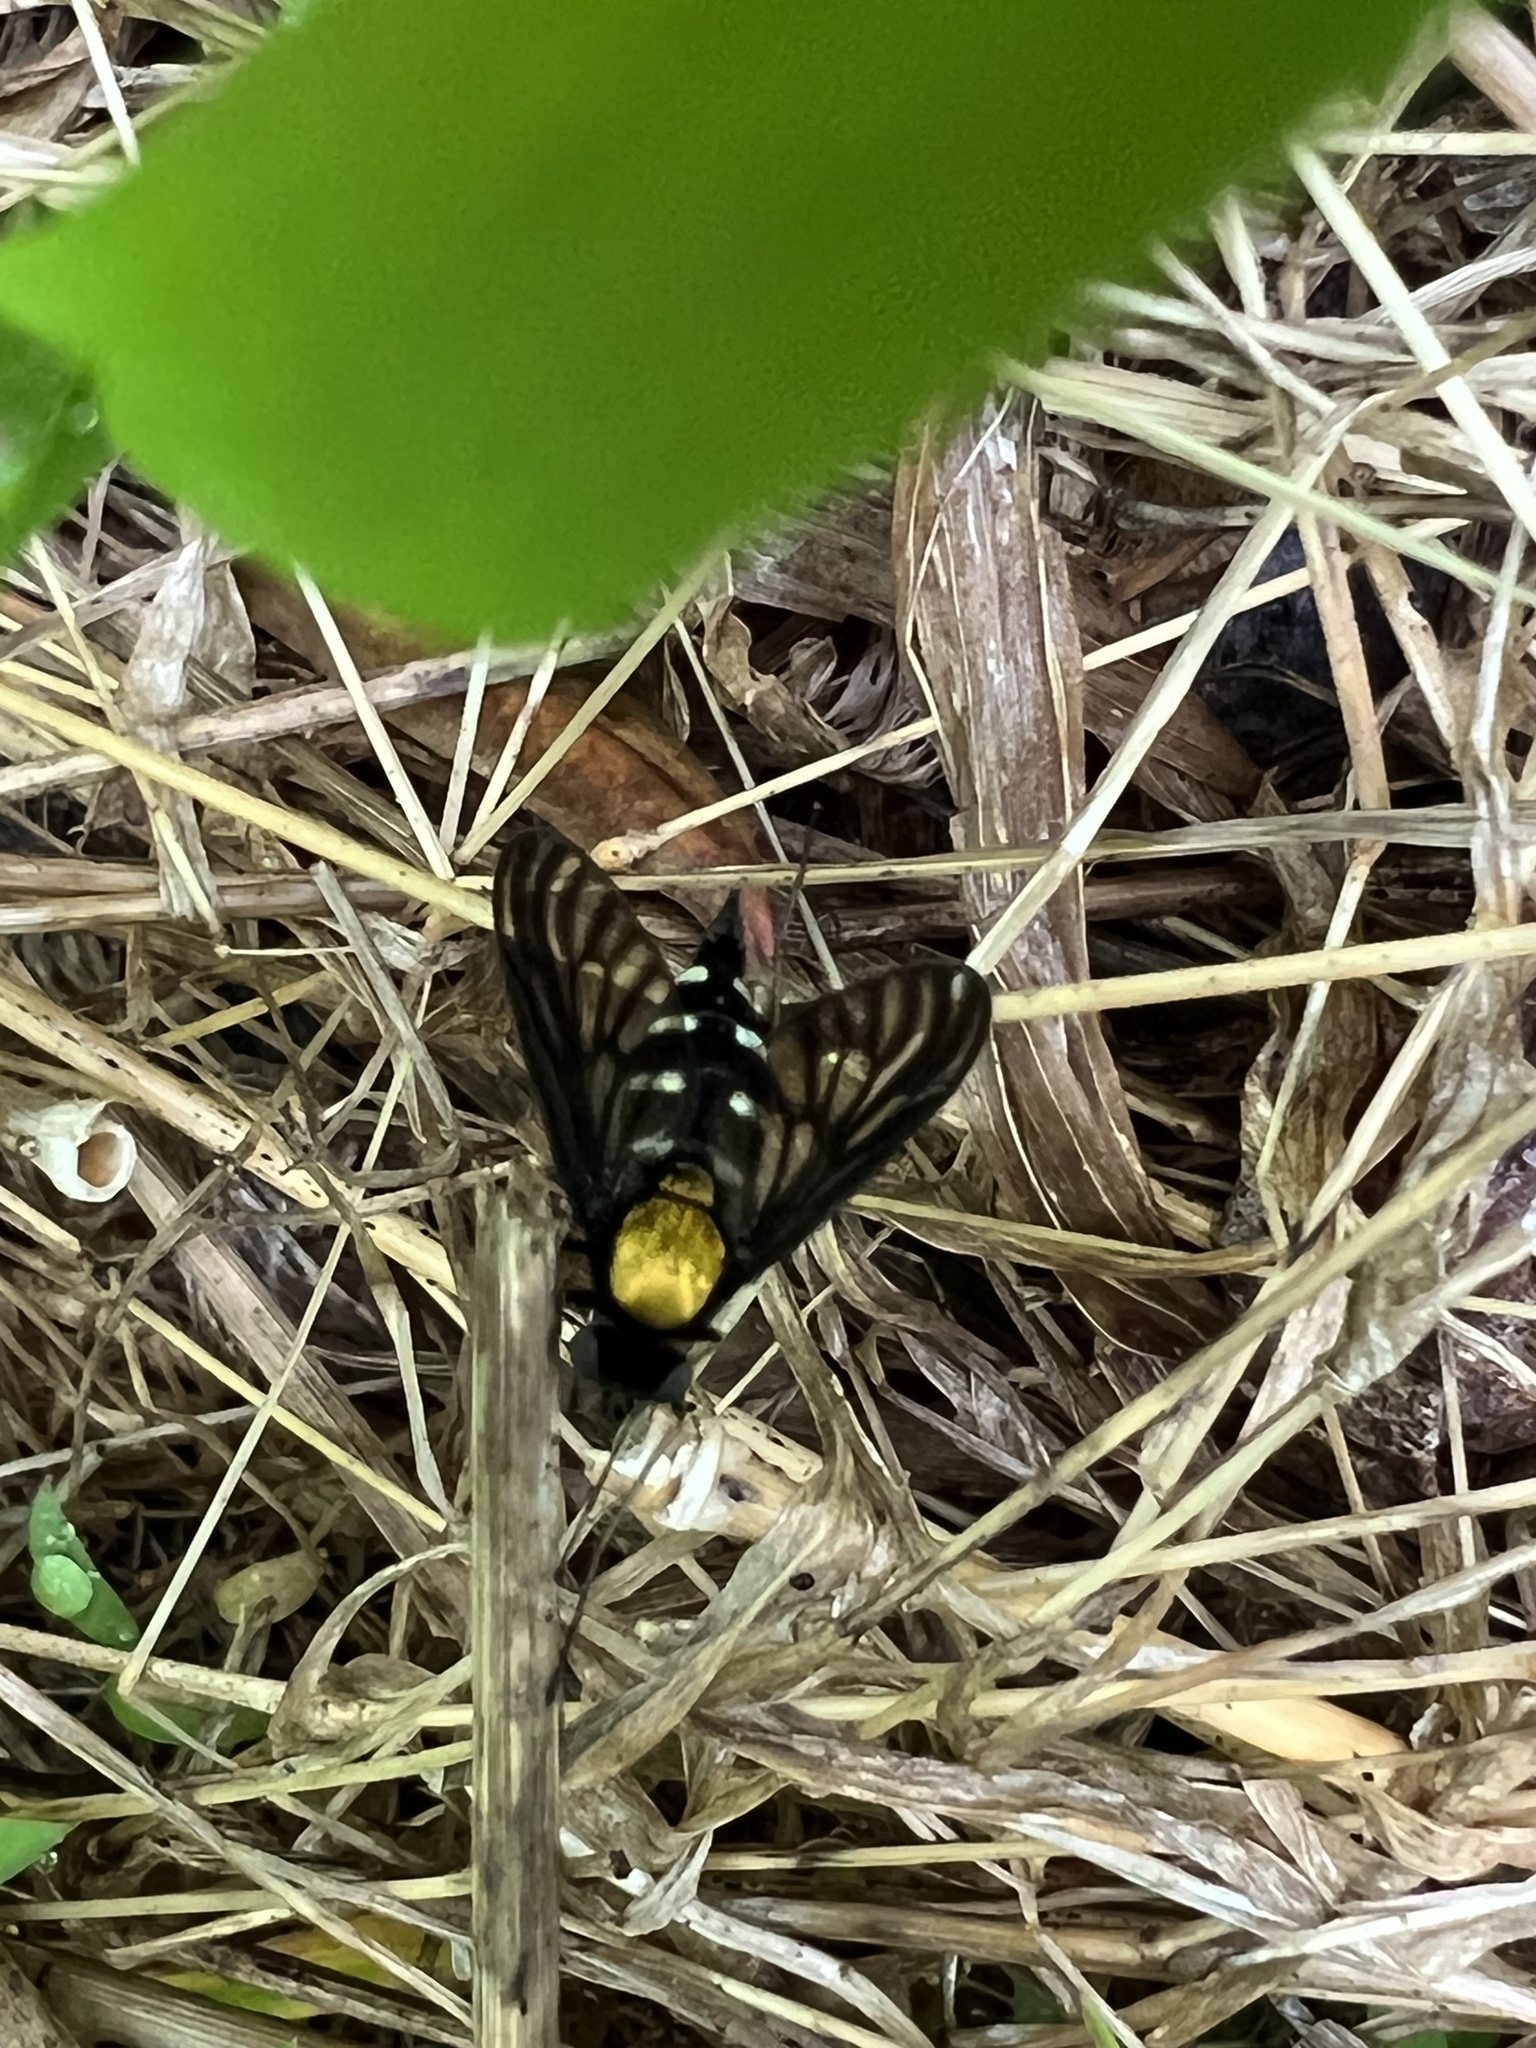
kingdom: Animalia
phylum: Arthropoda
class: Insecta
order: Diptera
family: Rhagionidae
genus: Chrysopilus
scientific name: Chrysopilus thoracicus
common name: Golden-backed snipe fly
